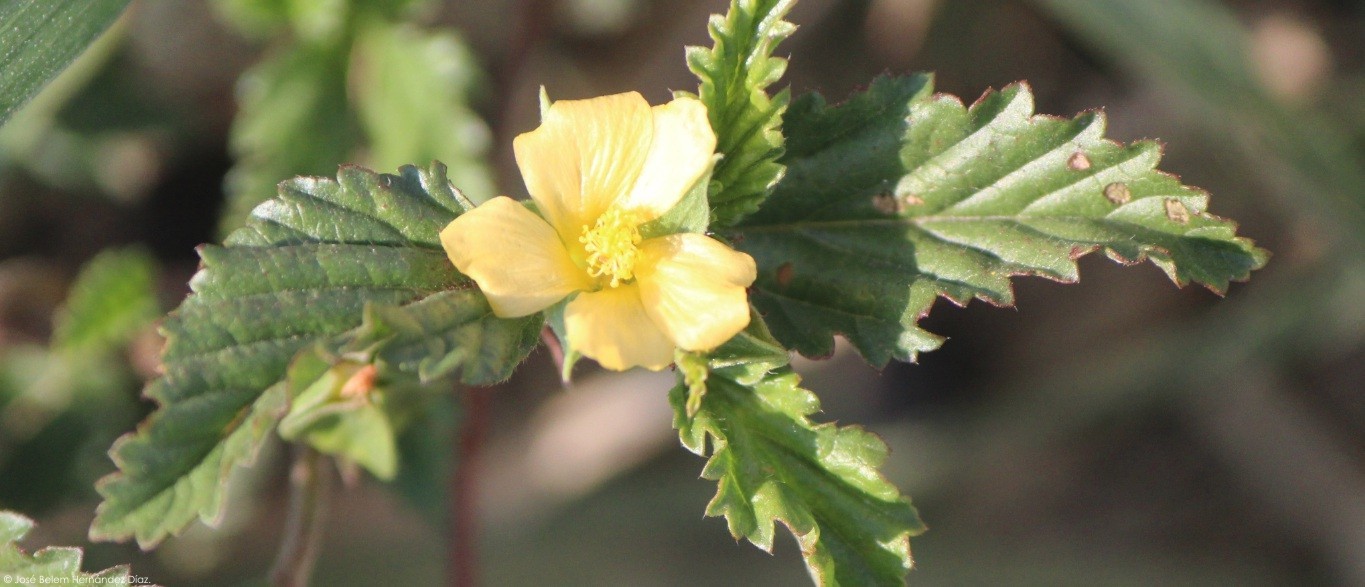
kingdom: Plantae
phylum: Tracheophyta
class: Magnoliopsida
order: Malvales
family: Malvaceae
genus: Malvastrum
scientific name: Malvastrum coromandelianum
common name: Threelobe false mallow
